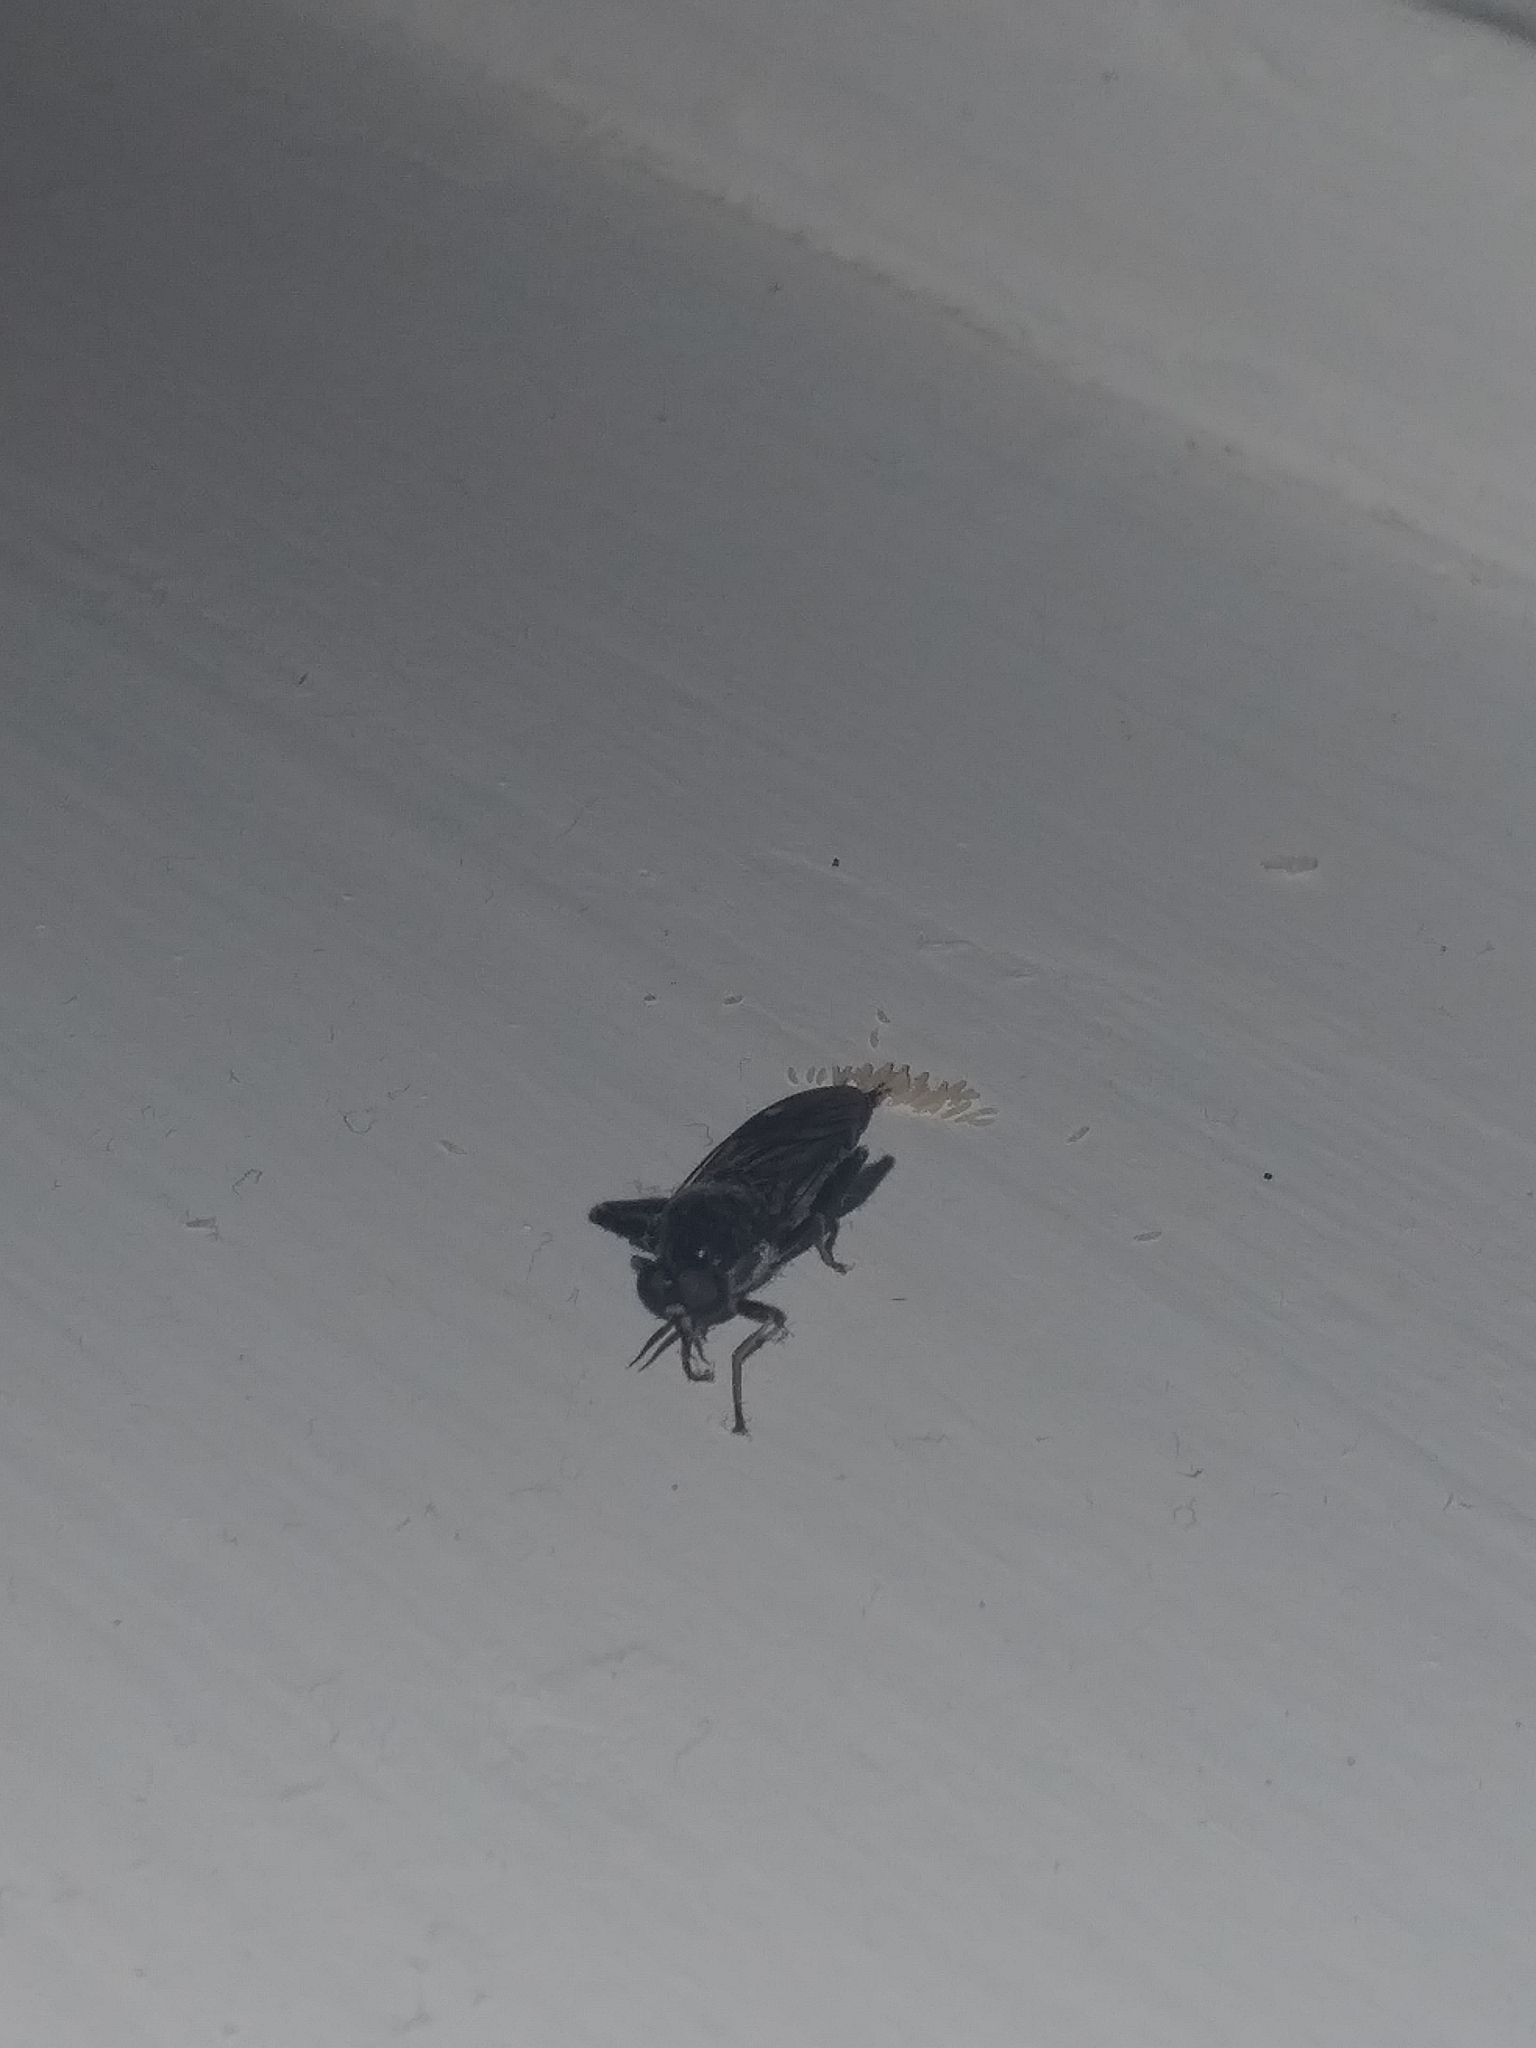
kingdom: Animalia
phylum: Arthropoda
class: Insecta
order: Diptera
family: Stratiomyidae
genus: Exaireta
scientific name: Exaireta spinigera
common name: Blue soldier fly
